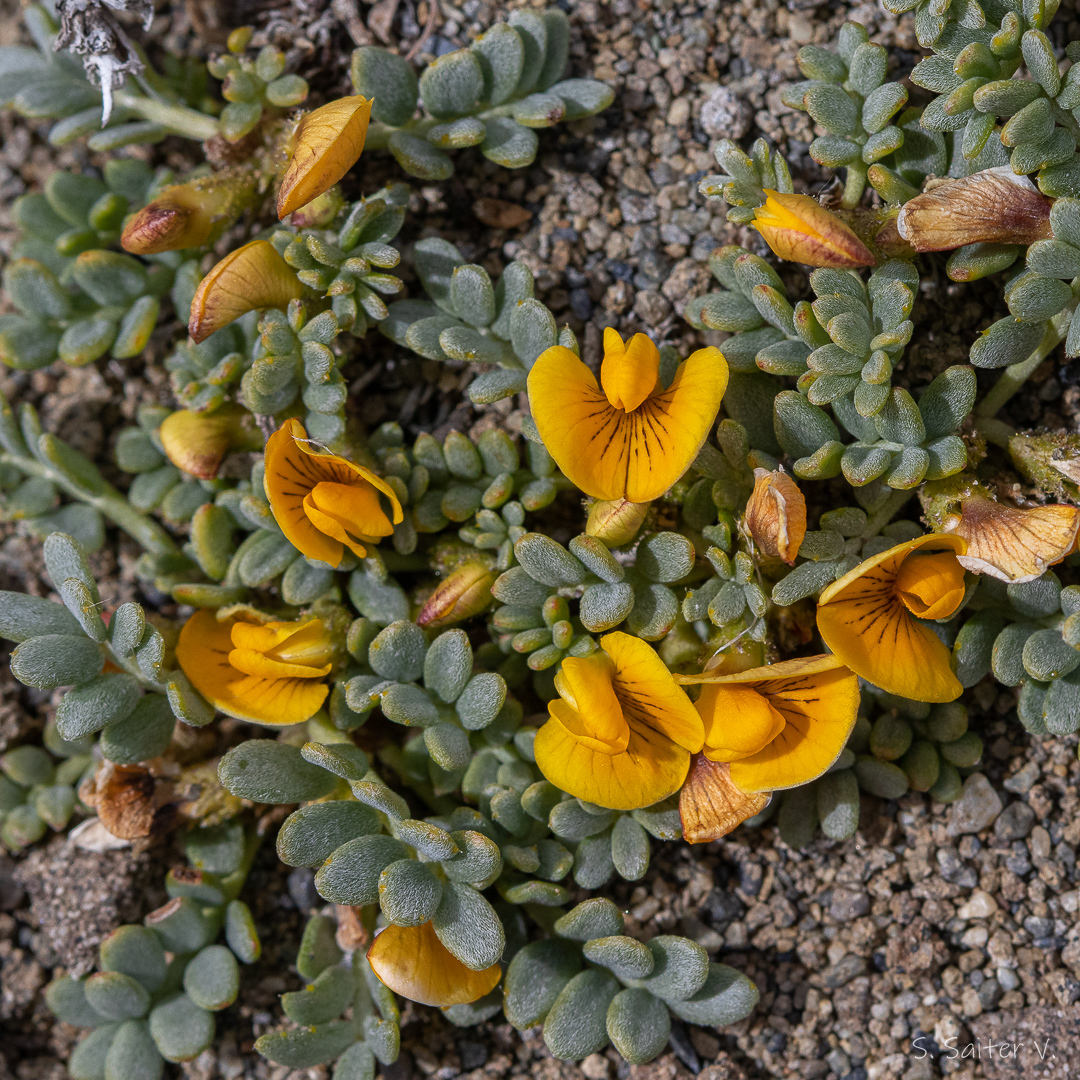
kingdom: Plantae
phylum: Tracheophyta
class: Magnoliopsida
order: Fabales
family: Fabaceae
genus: Adesmia
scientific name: Adesmia karraikensis
